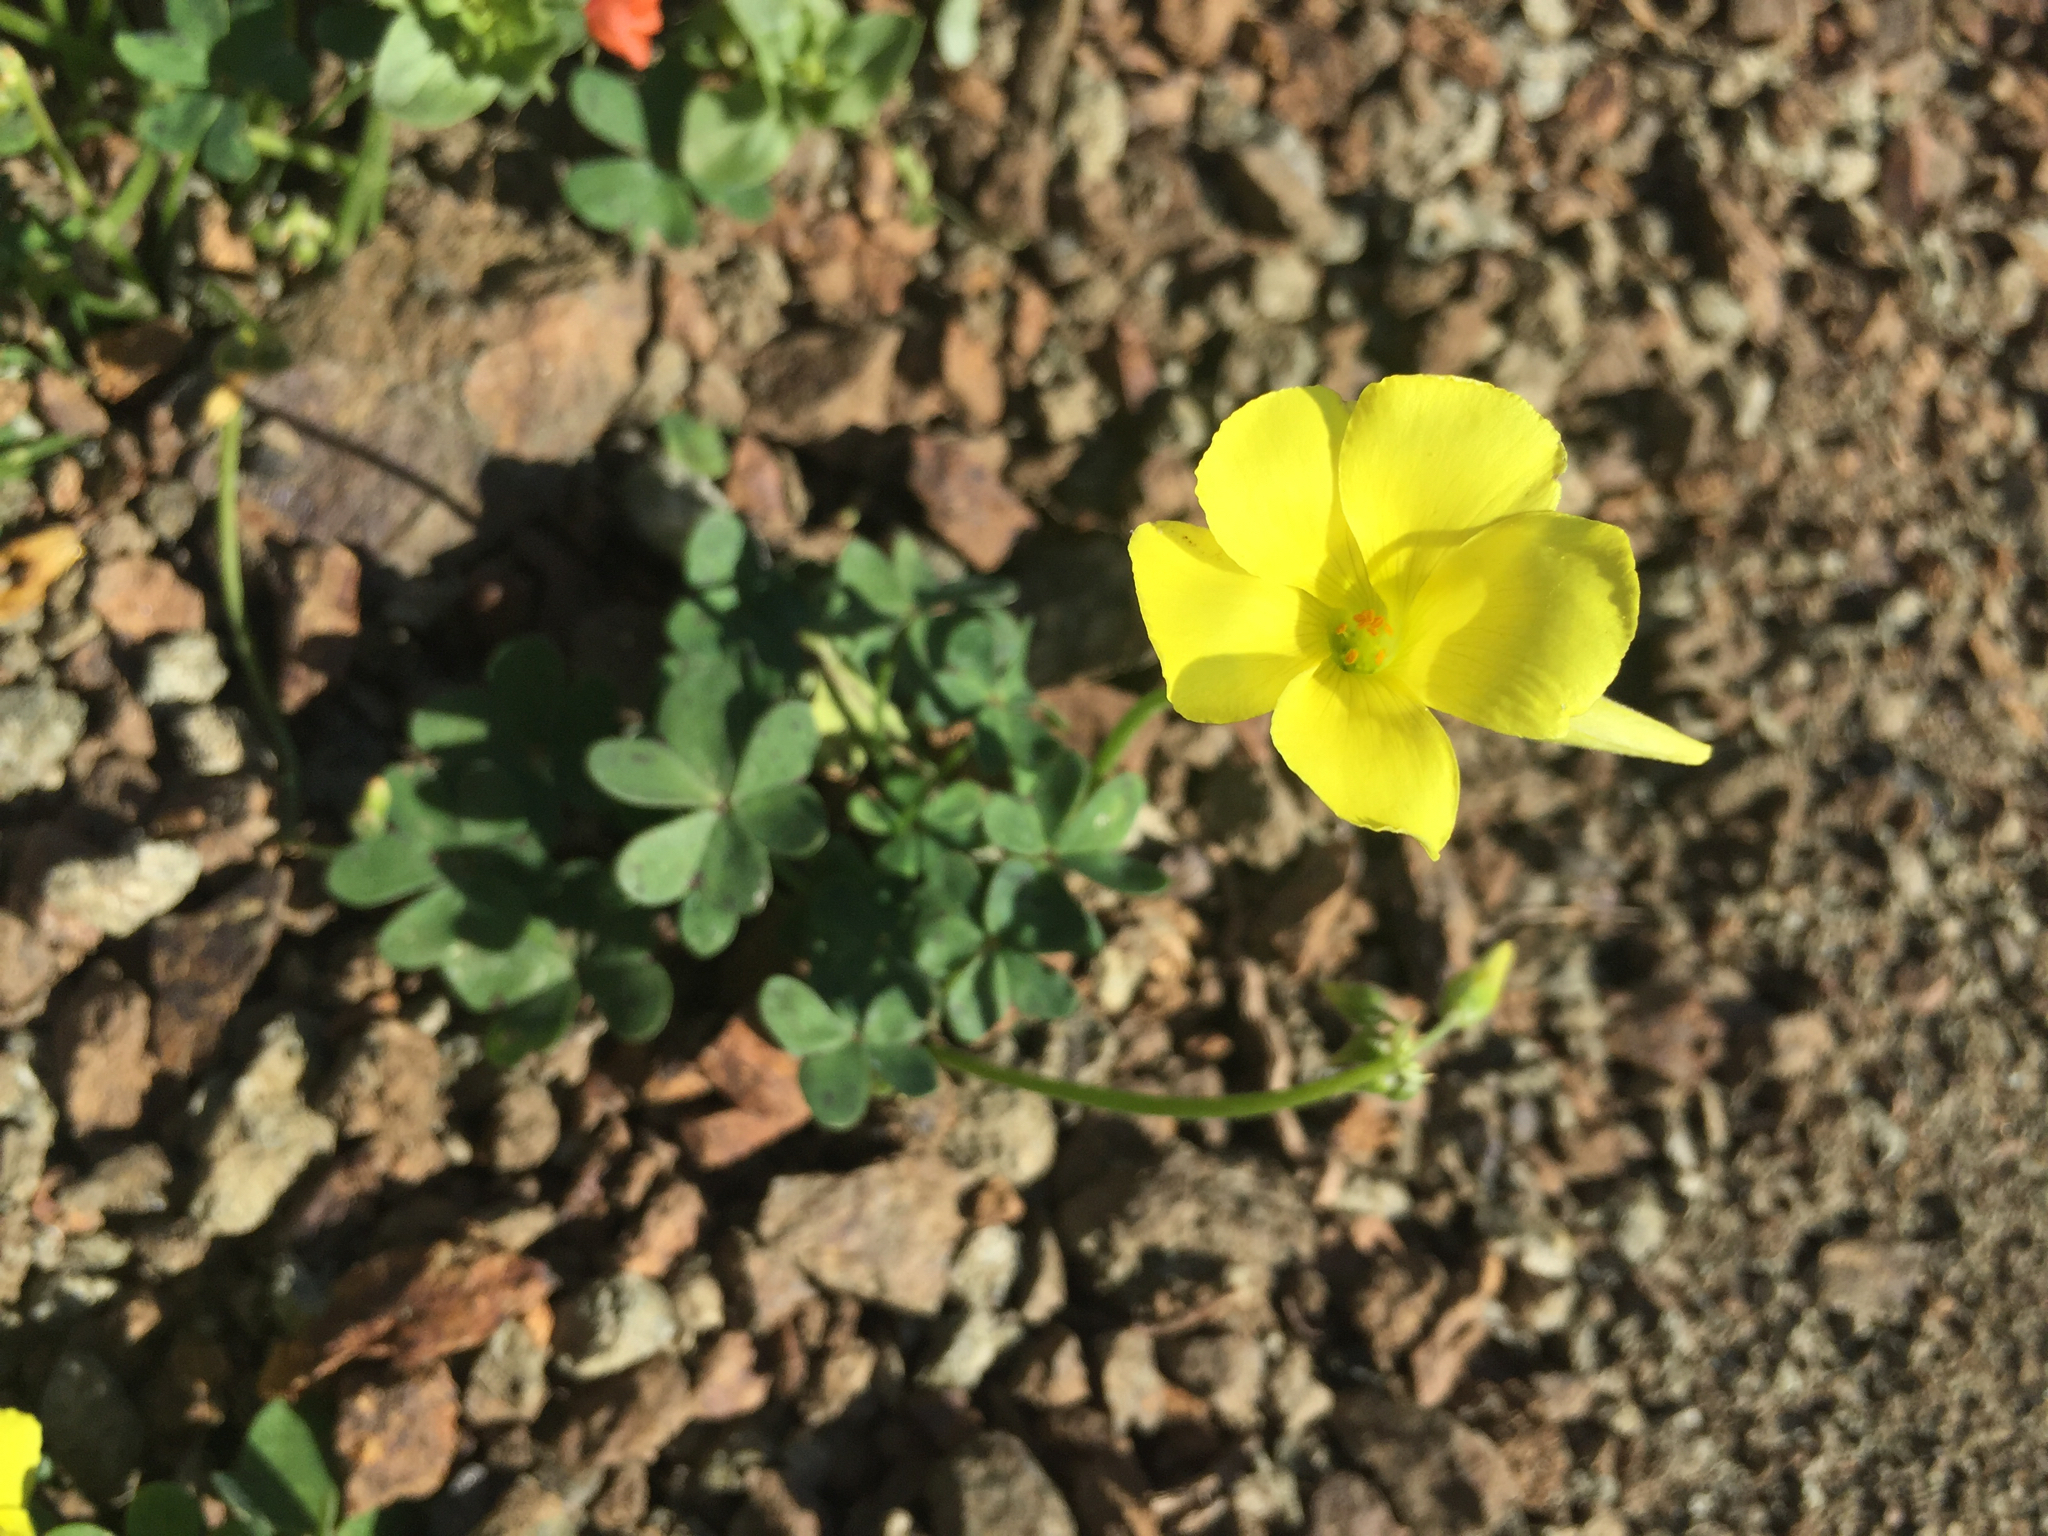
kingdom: Plantae
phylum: Tracheophyta
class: Magnoliopsida
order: Oxalidales
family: Oxalidaceae
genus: Oxalis
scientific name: Oxalis pes-caprae
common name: Bermuda-buttercup
